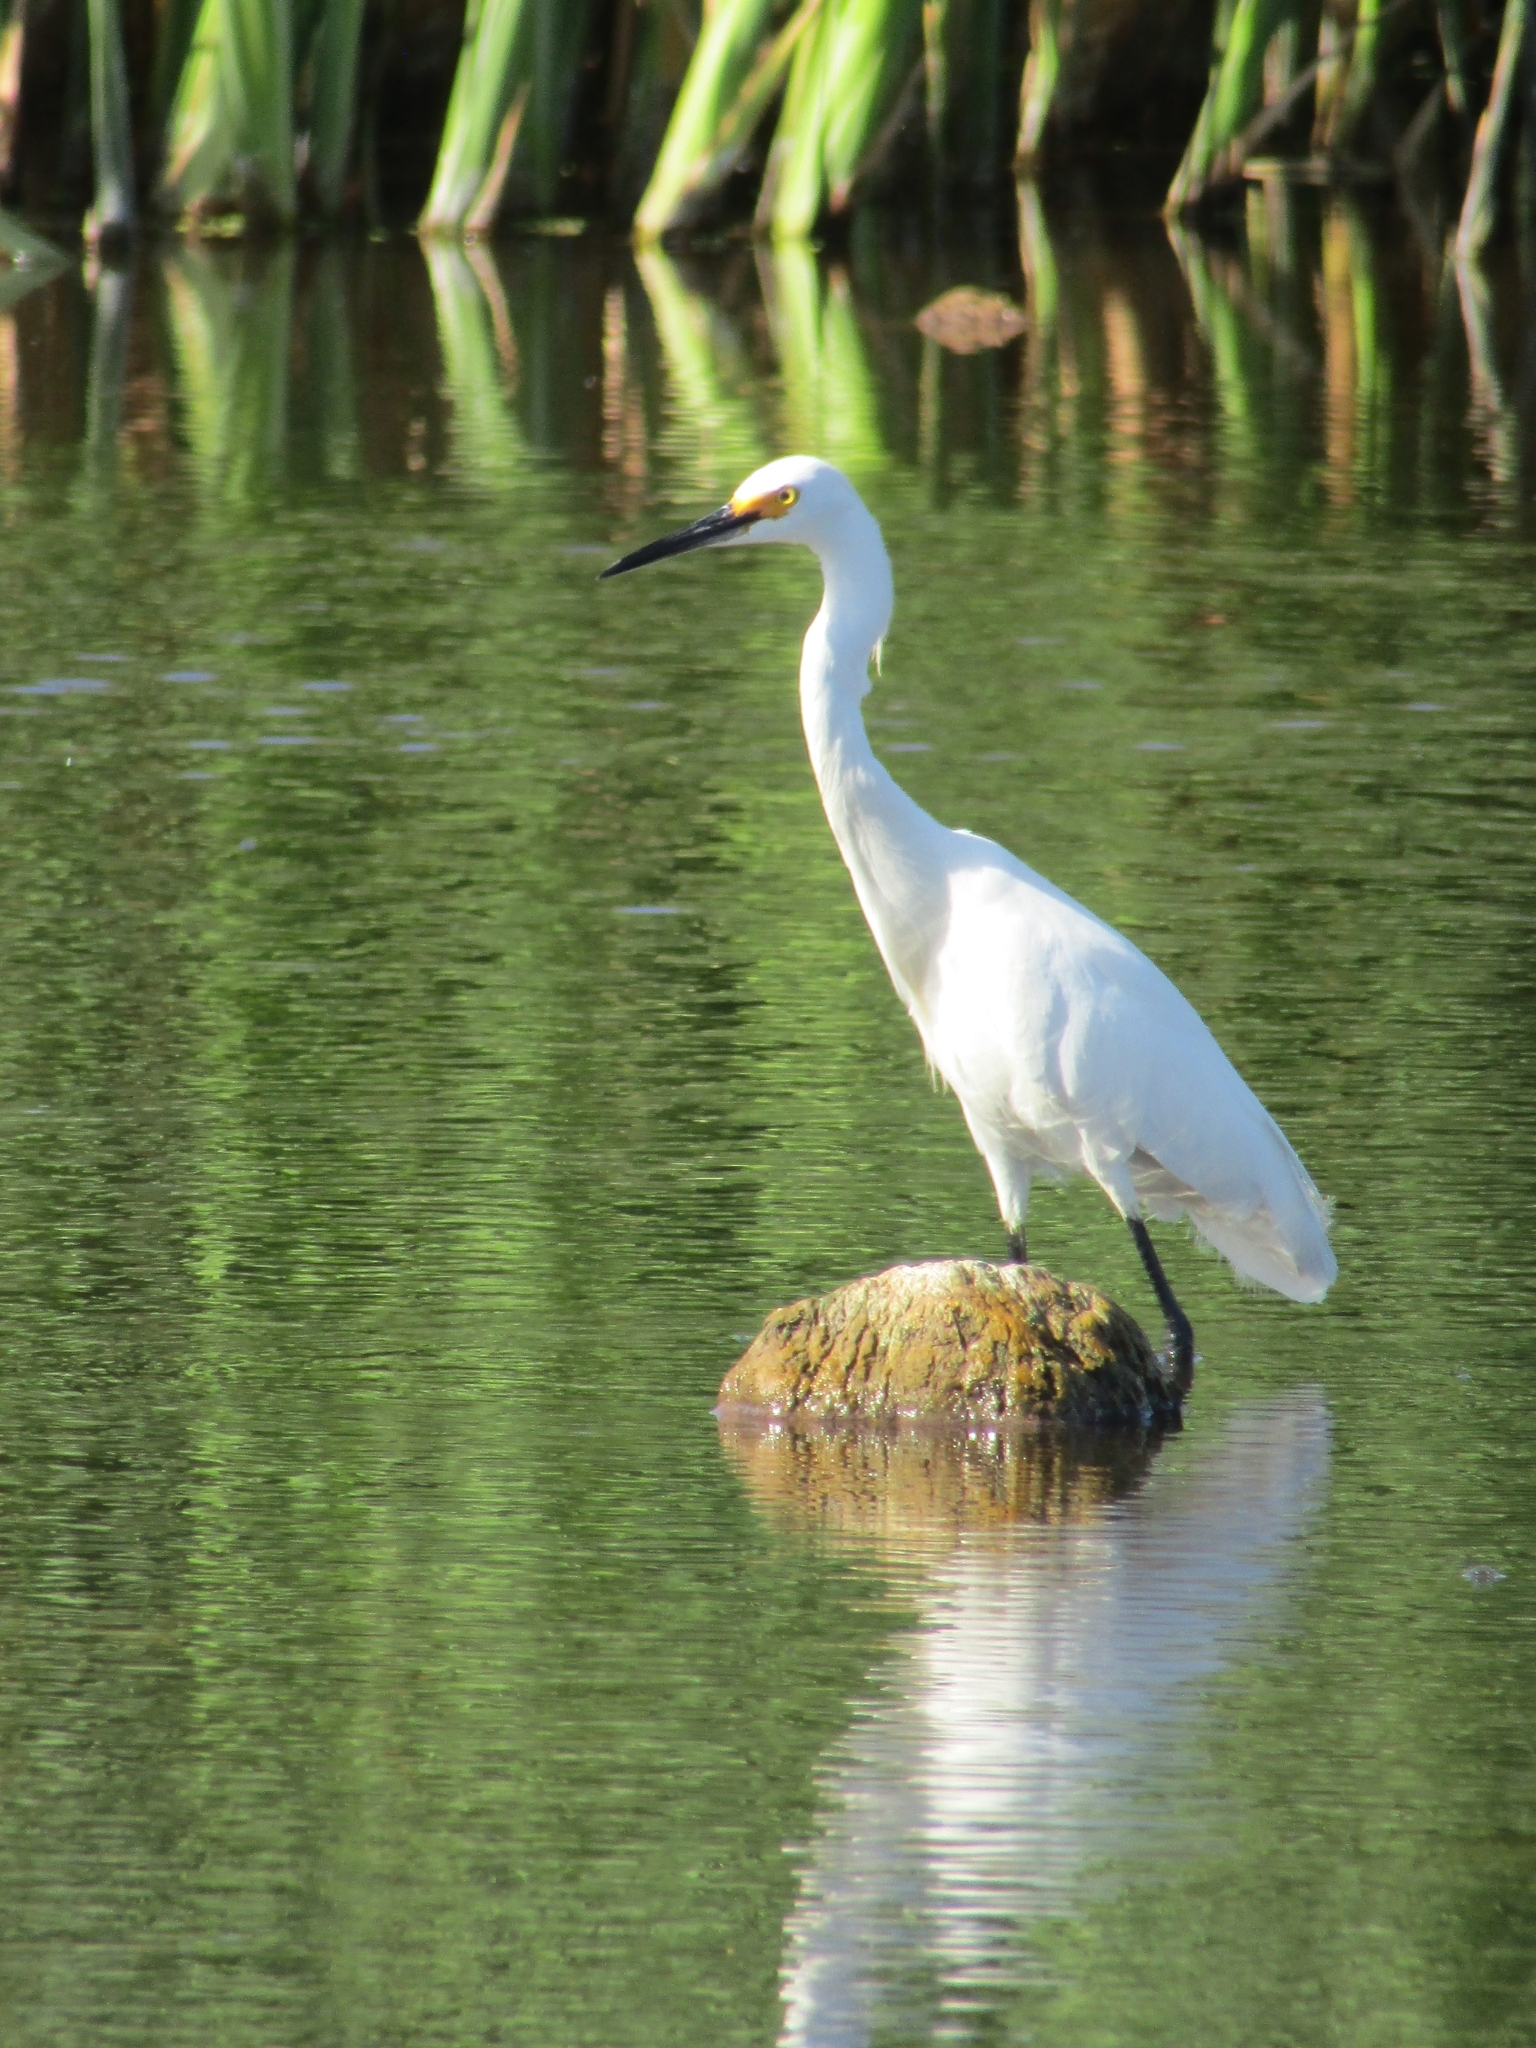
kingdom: Animalia
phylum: Chordata
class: Aves
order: Pelecaniformes
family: Ardeidae
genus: Egretta
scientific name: Egretta thula
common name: Snowy egret
